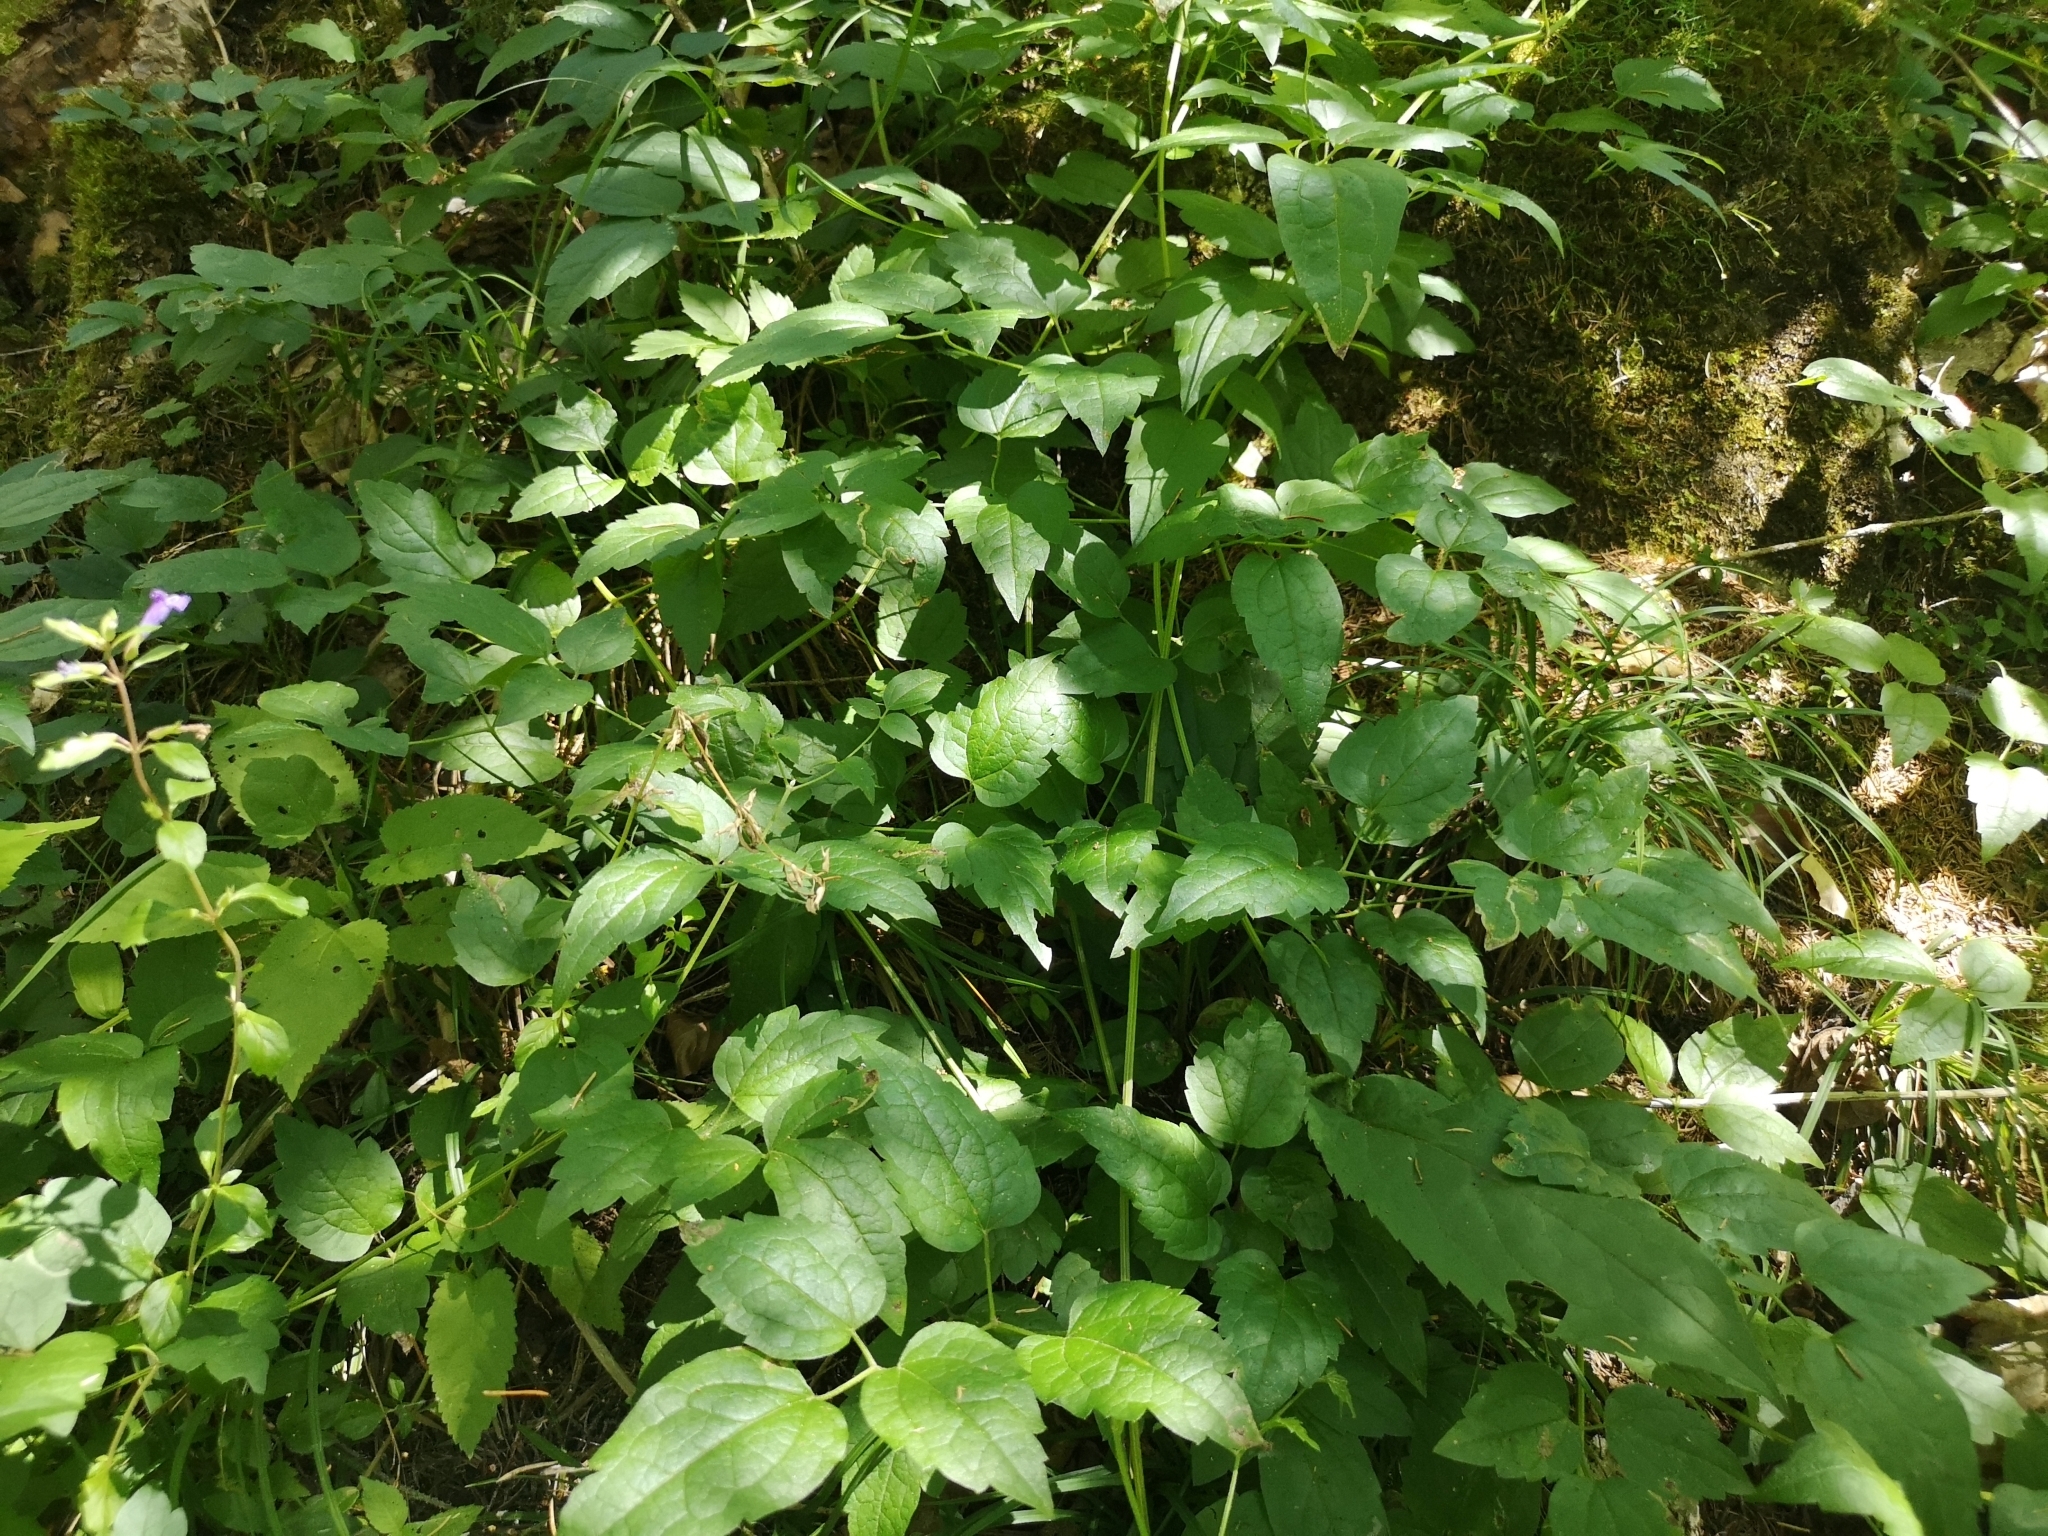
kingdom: Plantae
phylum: Tracheophyta
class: Magnoliopsida
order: Ranunculales
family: Ranunculaceae
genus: Clematis
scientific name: Clematis vitalba
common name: Evergreen clematis
